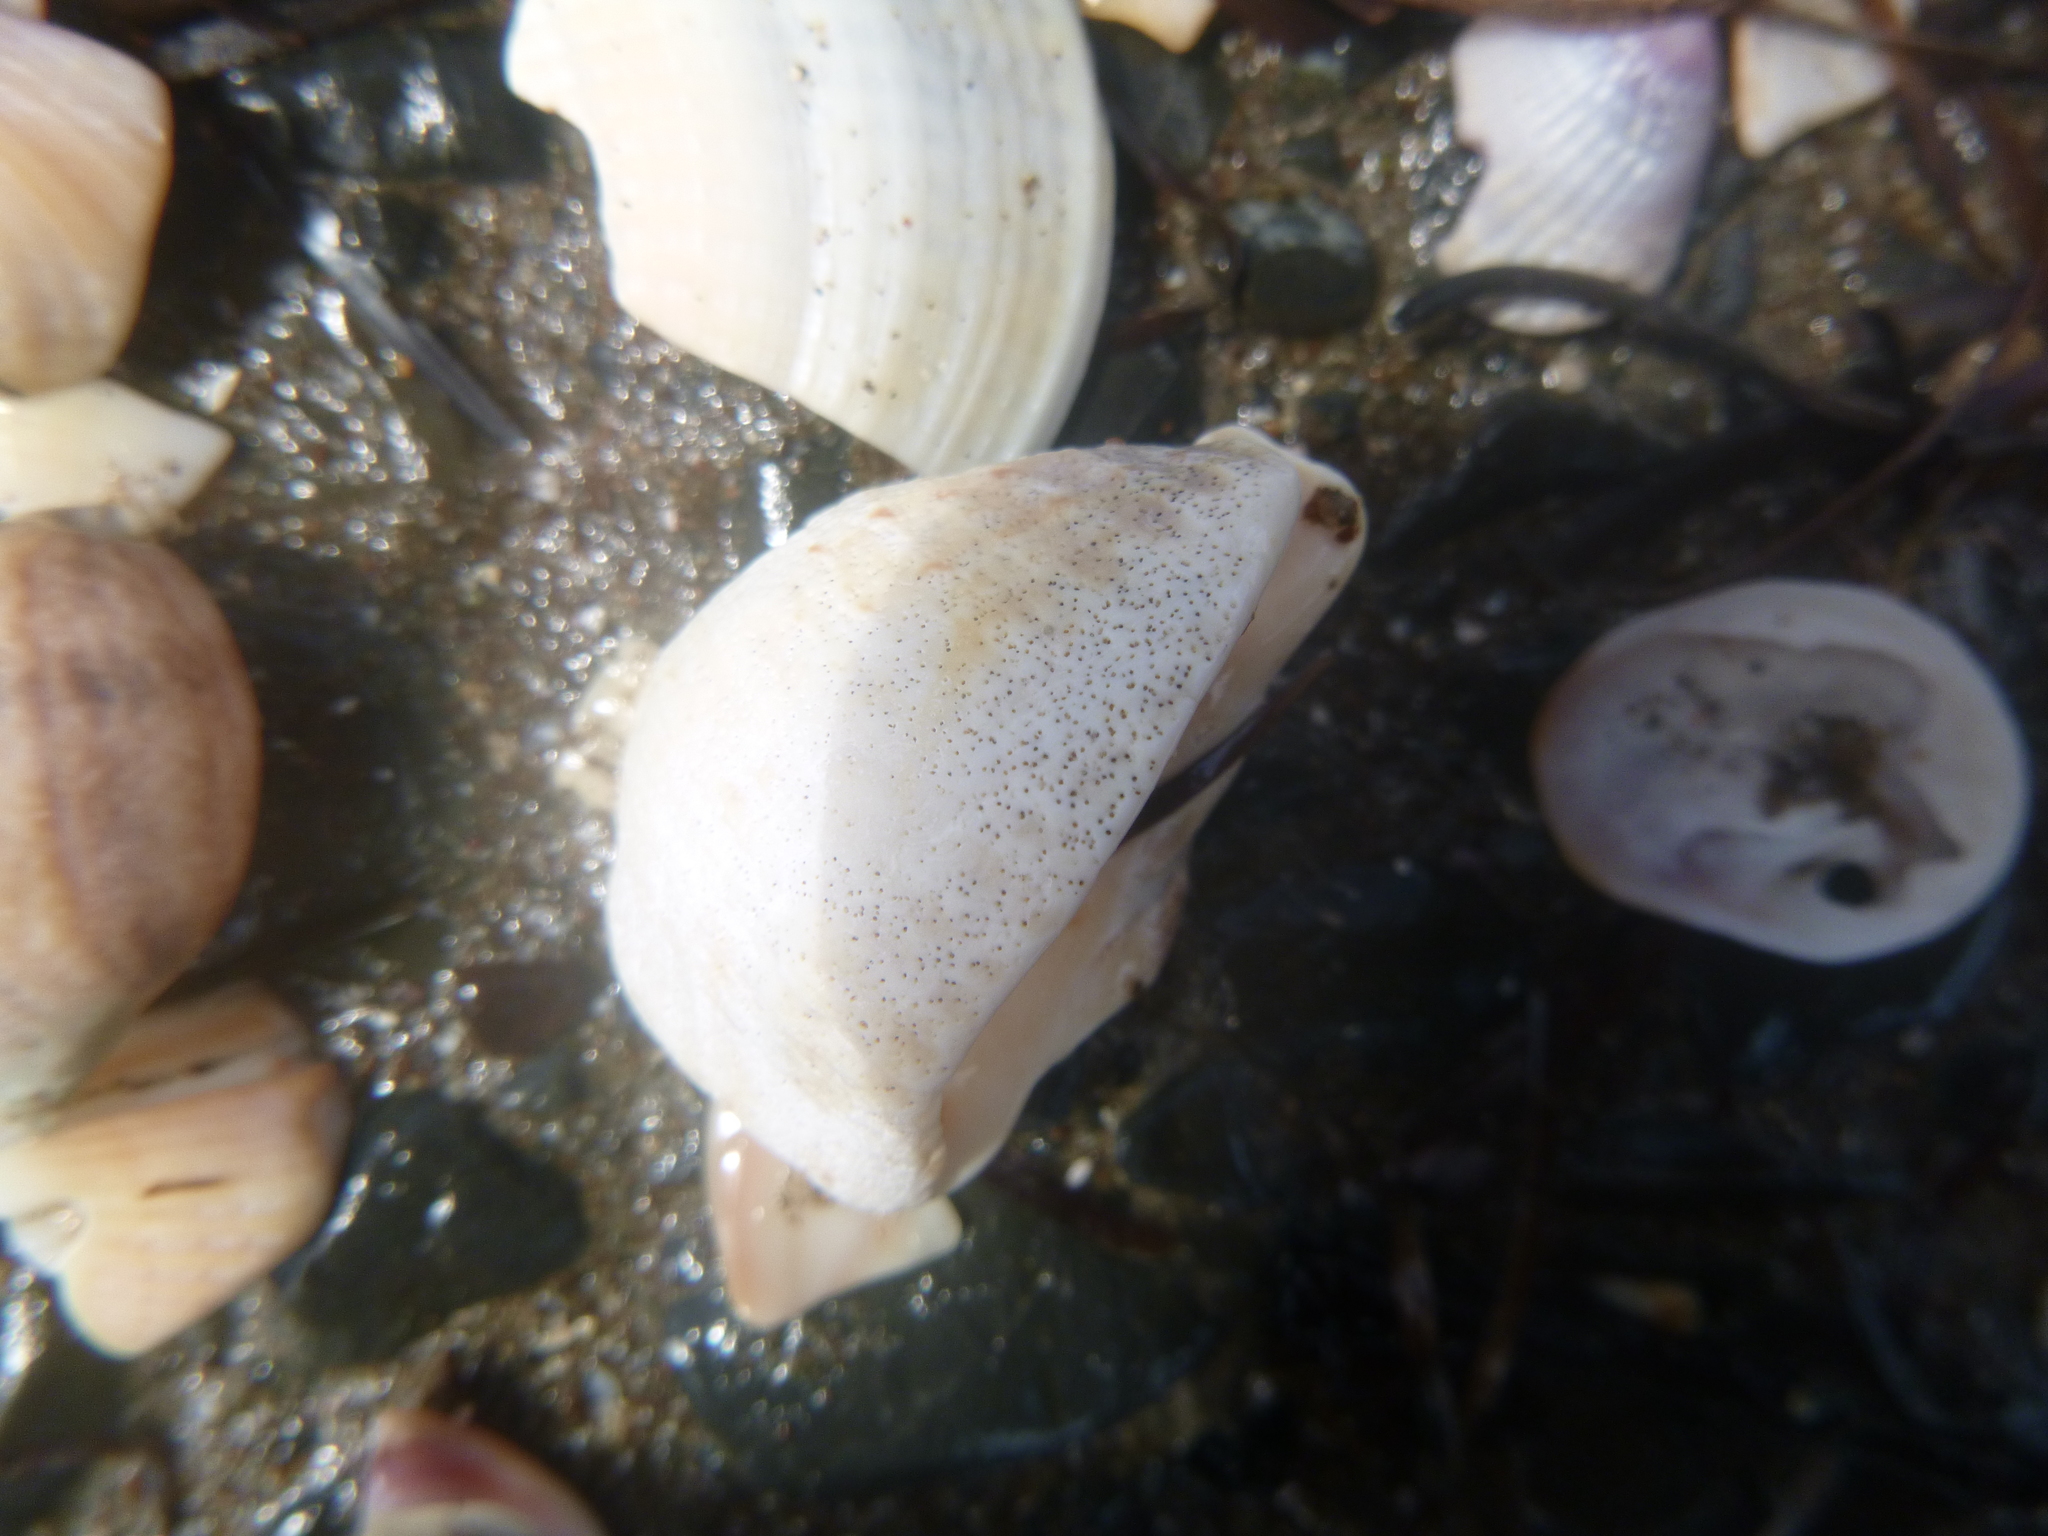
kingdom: Animalia
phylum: Mollusca
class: Gastropoda
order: Neogastropoda
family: Cominellidae
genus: Cominella
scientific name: Cominella adspersa
